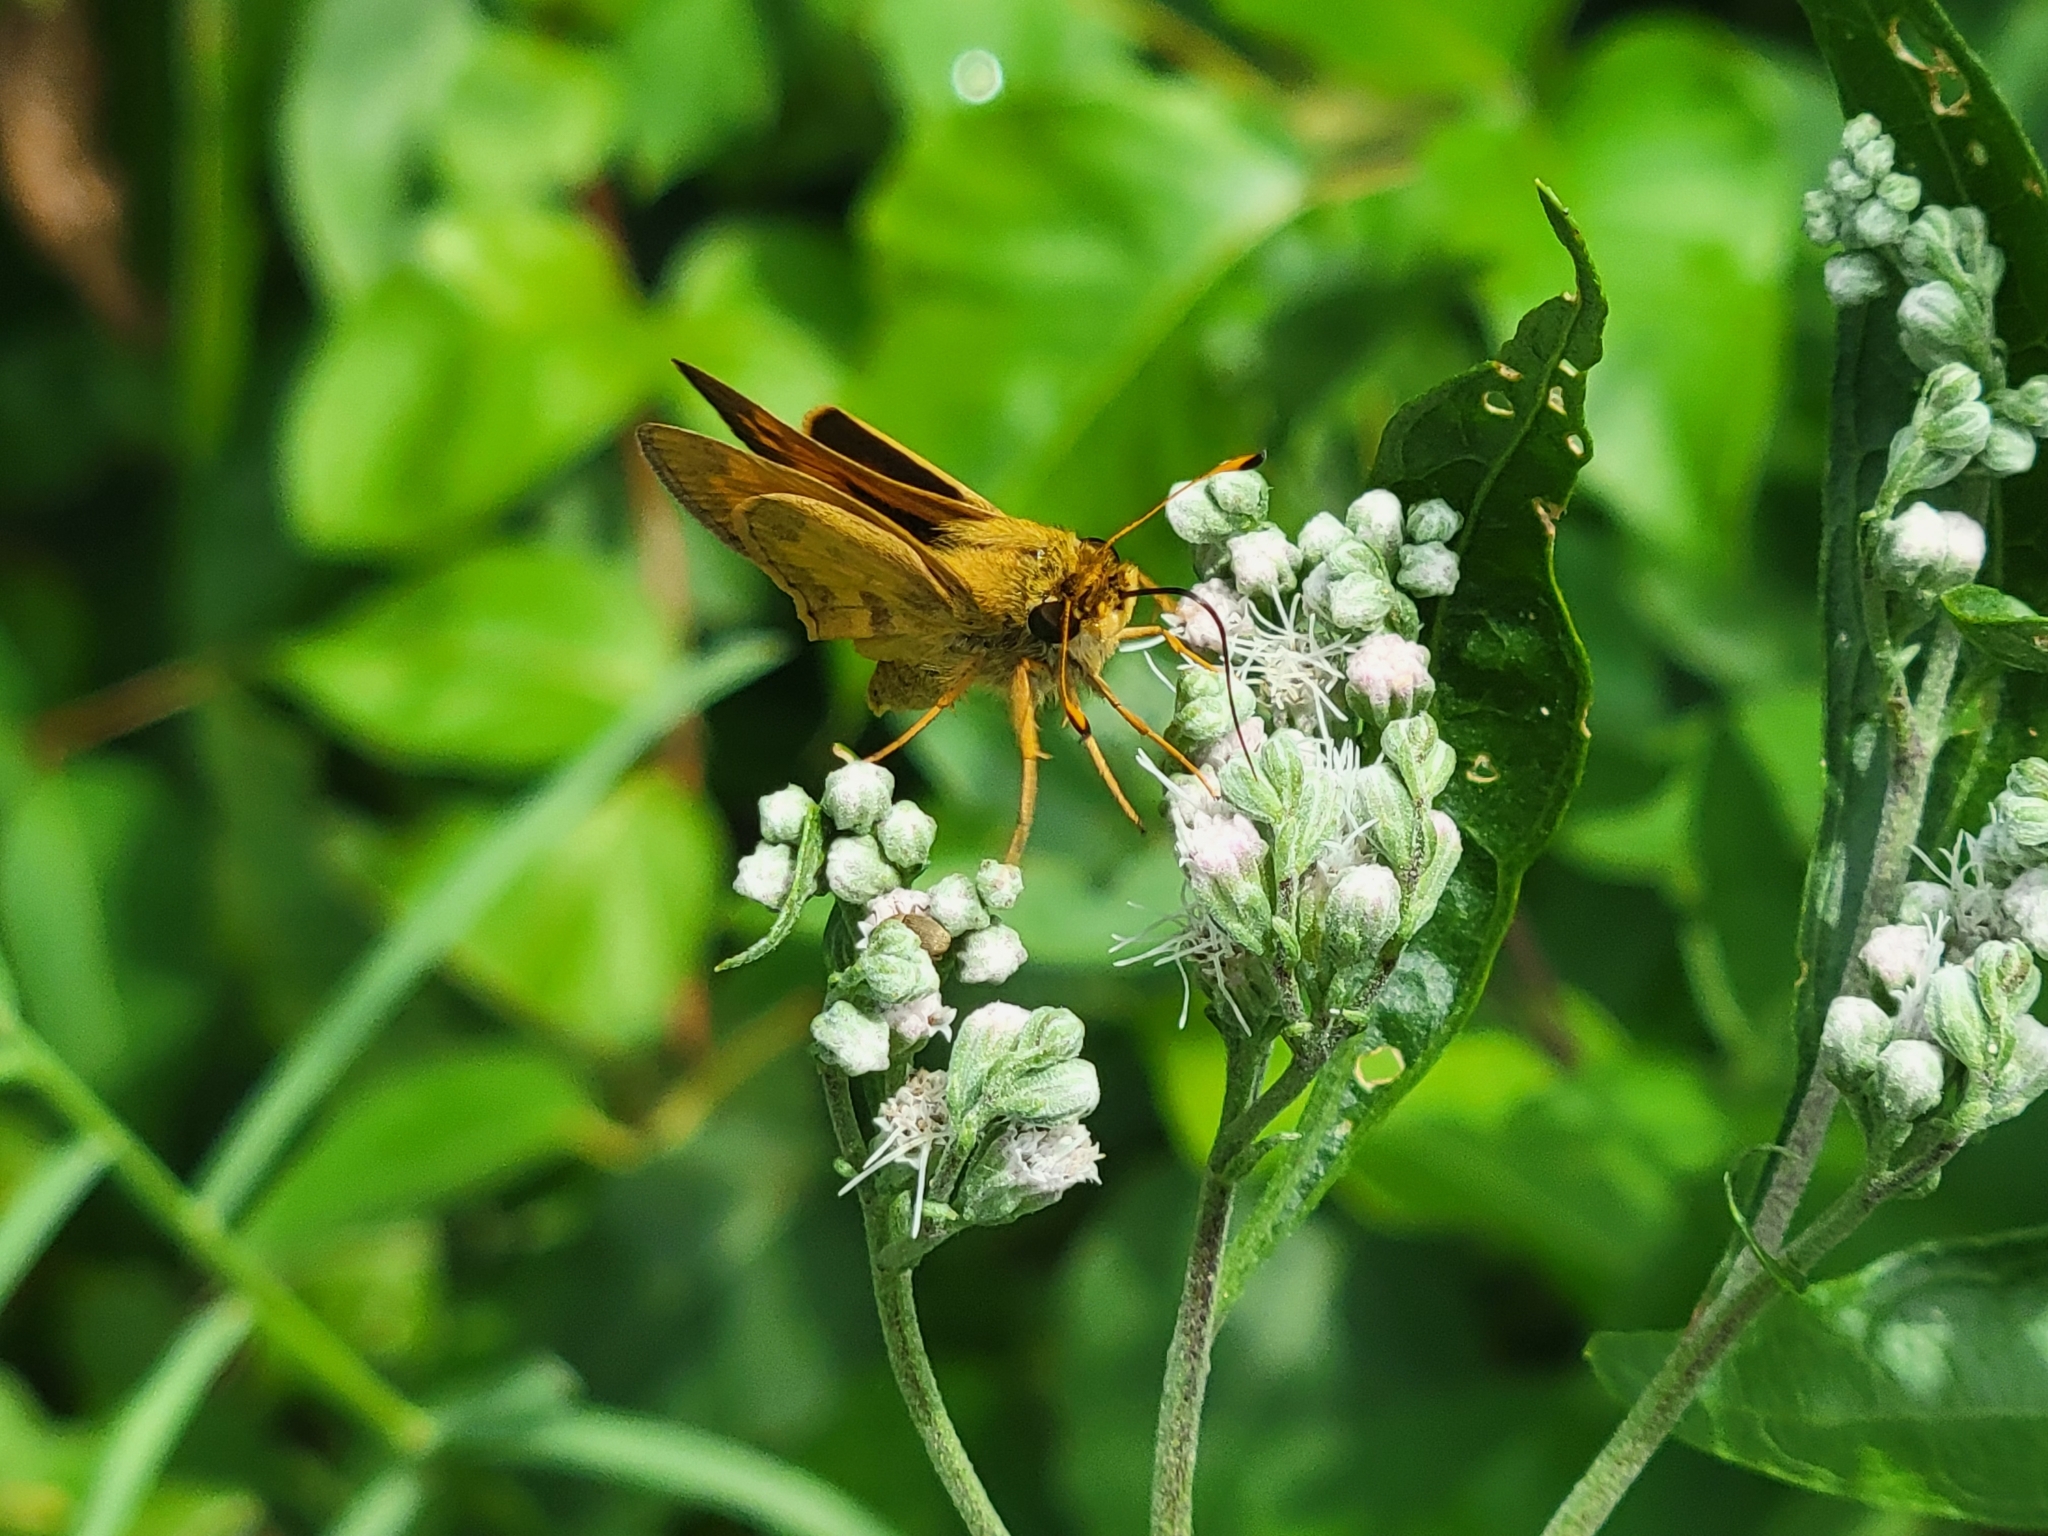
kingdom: Animalia
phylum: Arthropoda
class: Insecta
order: Lepidoptera
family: Hesperiidae
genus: Atalopedes
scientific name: Atalopedes
